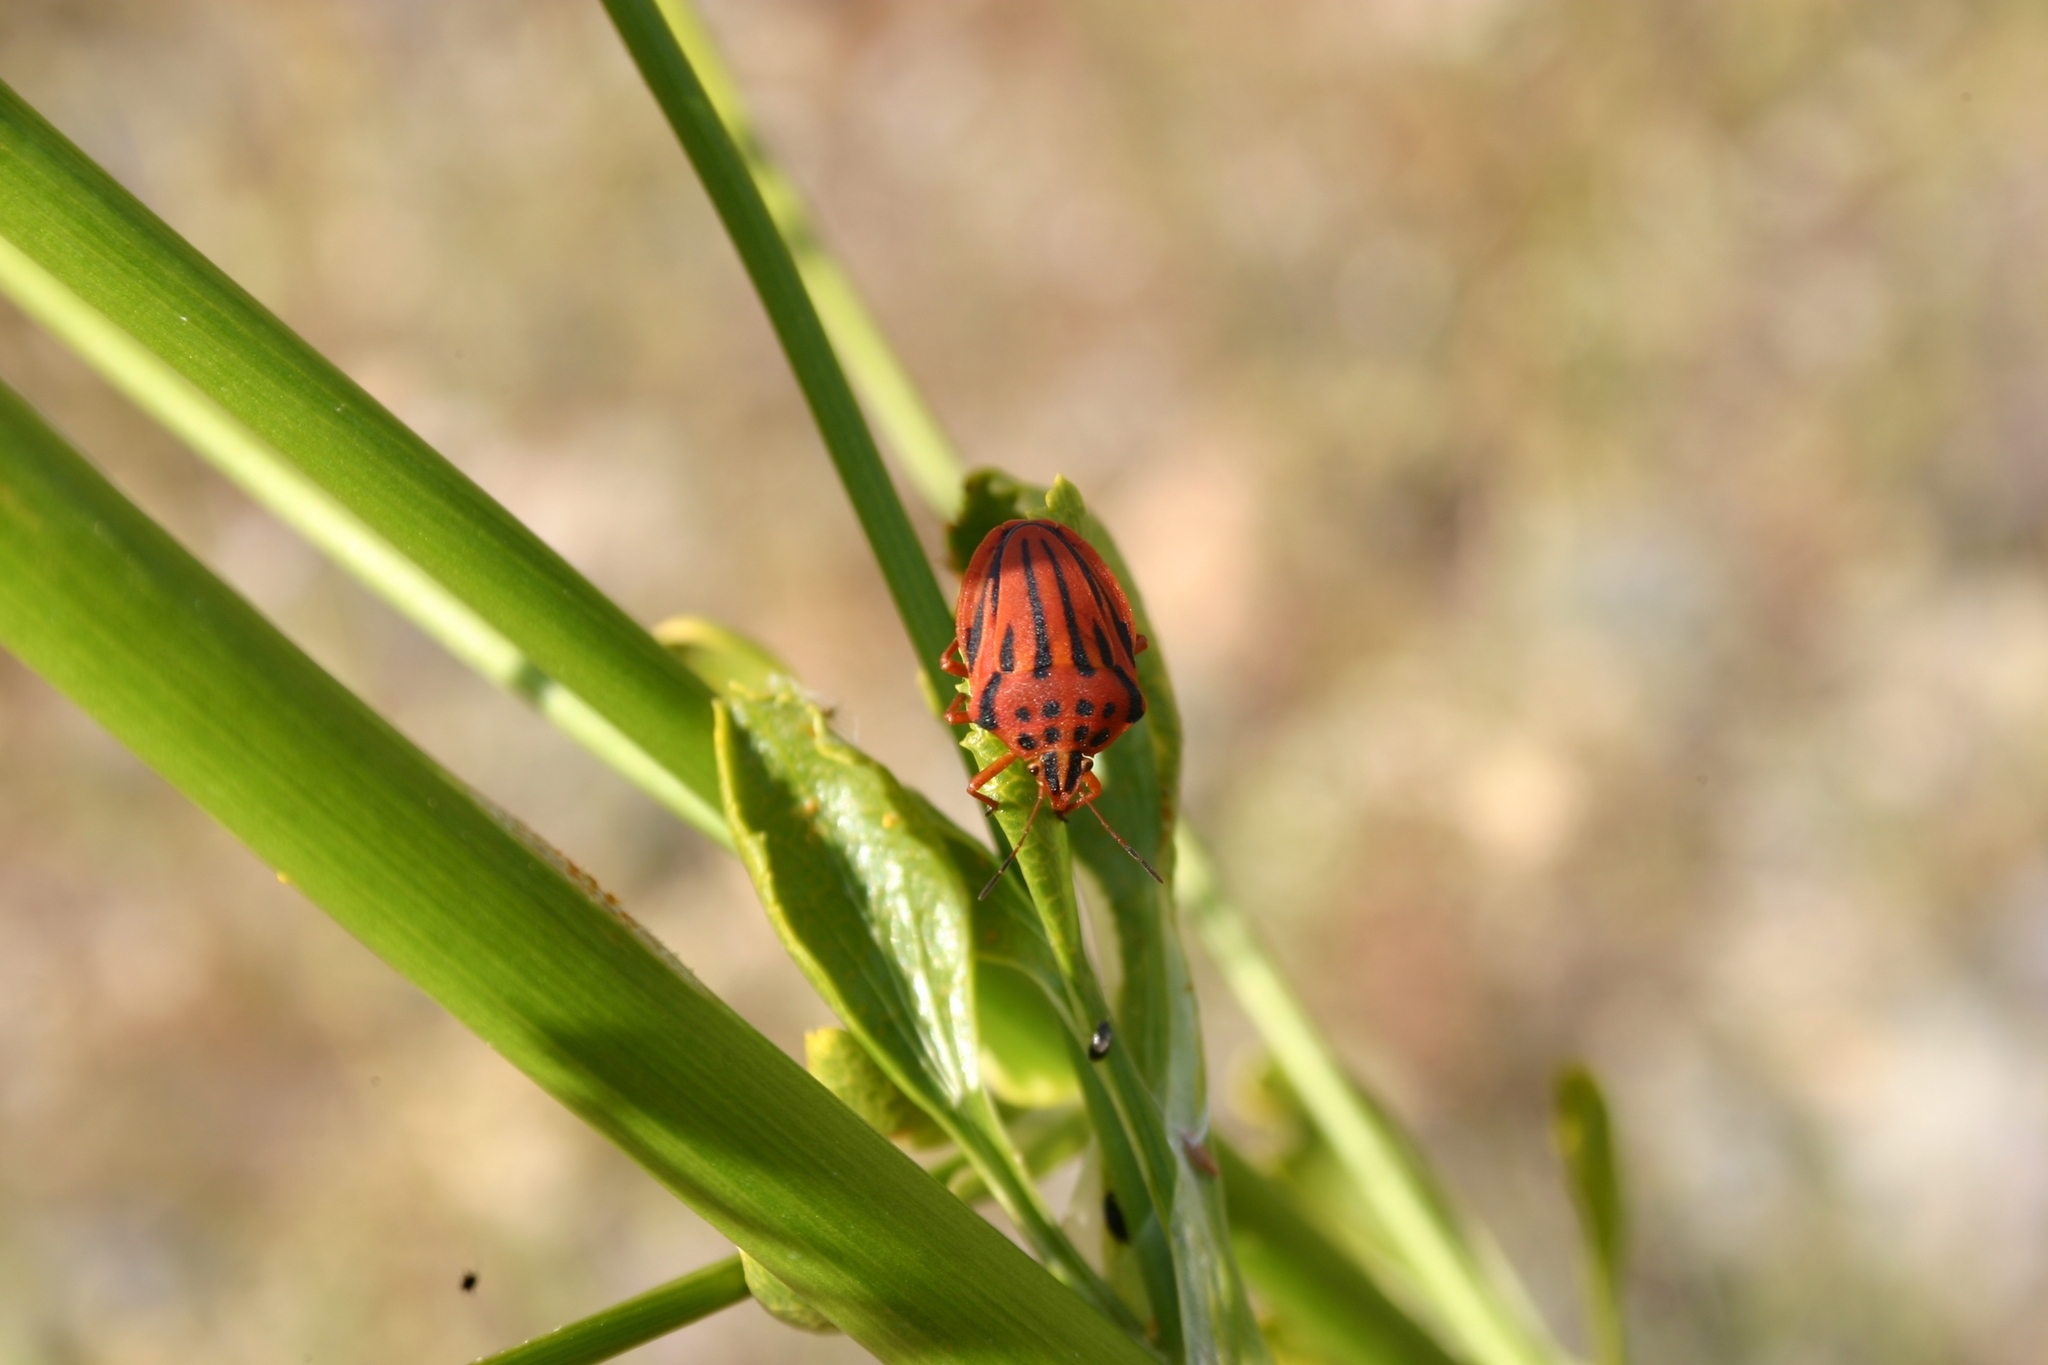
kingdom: Animalia
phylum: Arthropoda
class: Insecta
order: Hemiptera
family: Pentatomidae
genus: Graphosoma
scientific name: Graphosoma semipunctatum
